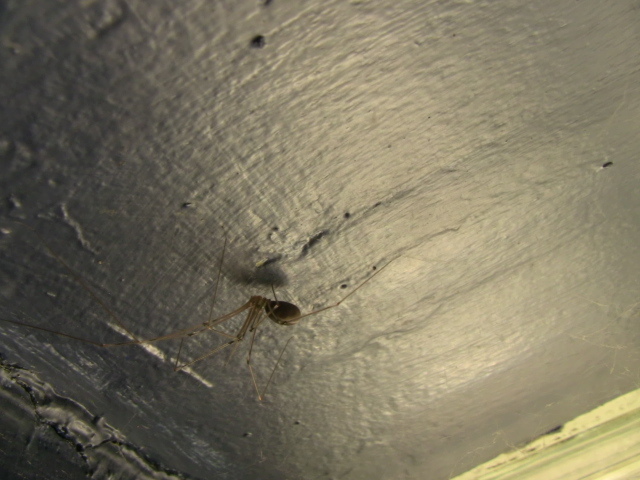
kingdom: Animalia
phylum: Arthropoda
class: Arachnida
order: Araneae
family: Pholcidae
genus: Pholcus
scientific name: Pholcus phalangioides
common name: Longbodied cellar spider
